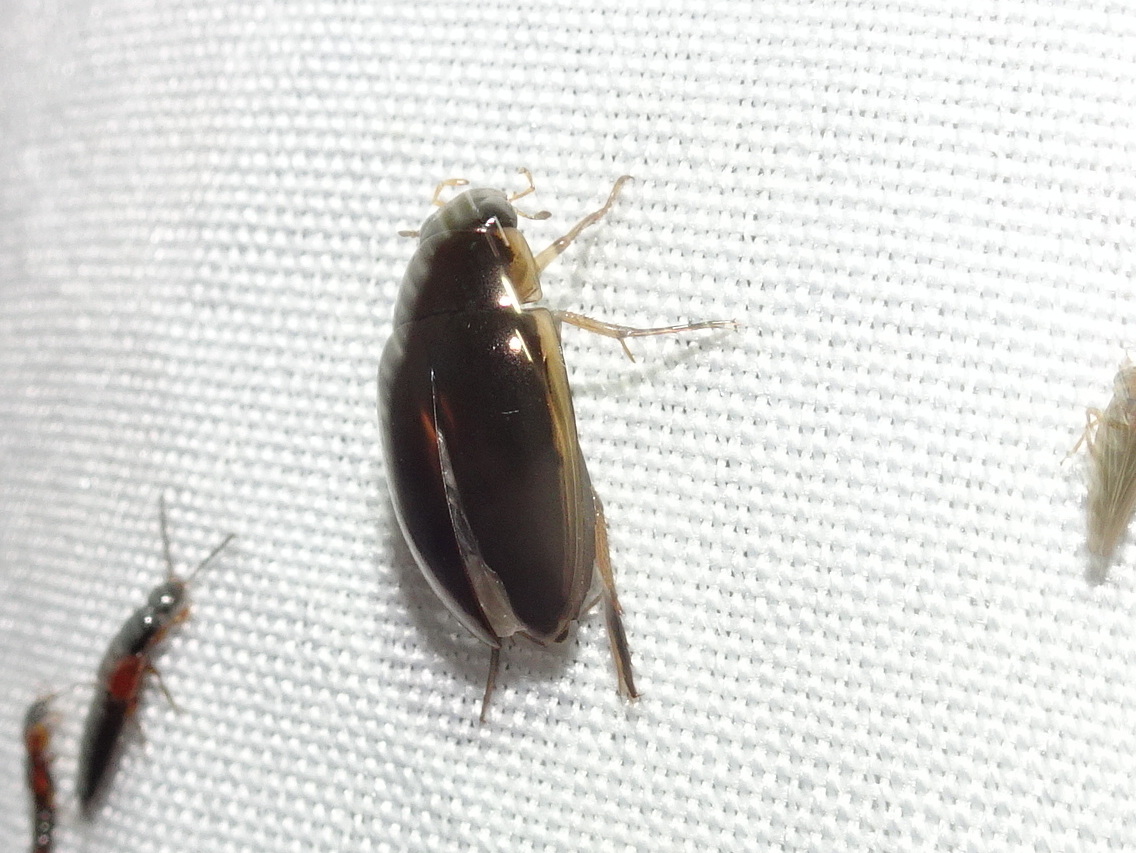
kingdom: Animalia
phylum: Arthropoda
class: Insecta
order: Coleoptera
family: Hydrophilidae
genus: Tropisternus
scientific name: Tropisternus lateralis
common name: Lateral-banded water scavenger beetle
